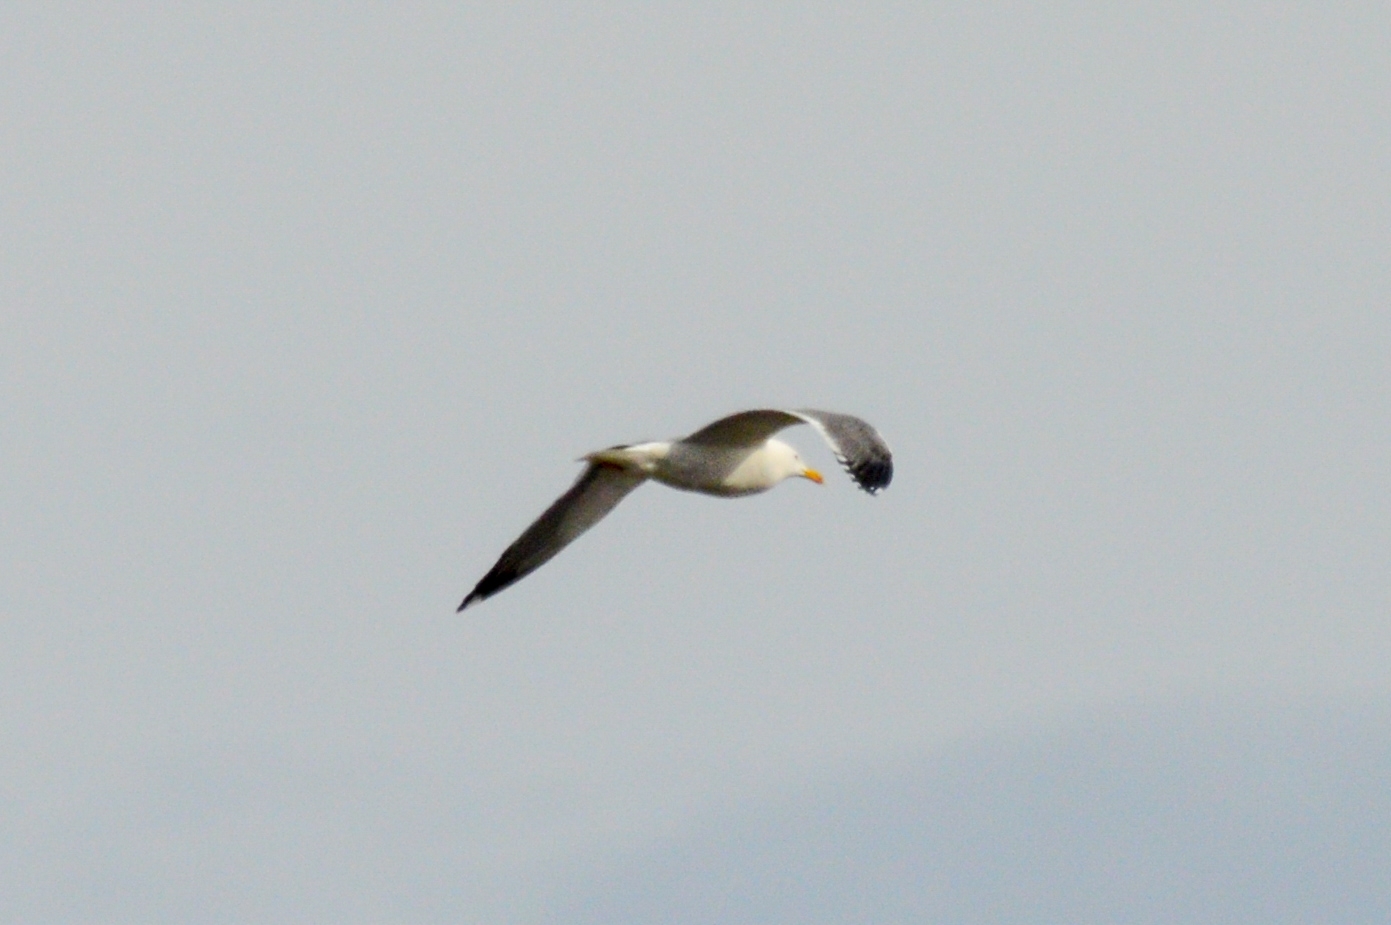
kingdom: Animalia
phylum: Chordata
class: Aves
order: Charadriiformes
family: Laridae
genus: Larus
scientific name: Larus fuscus
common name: Lesser black-backed gull
